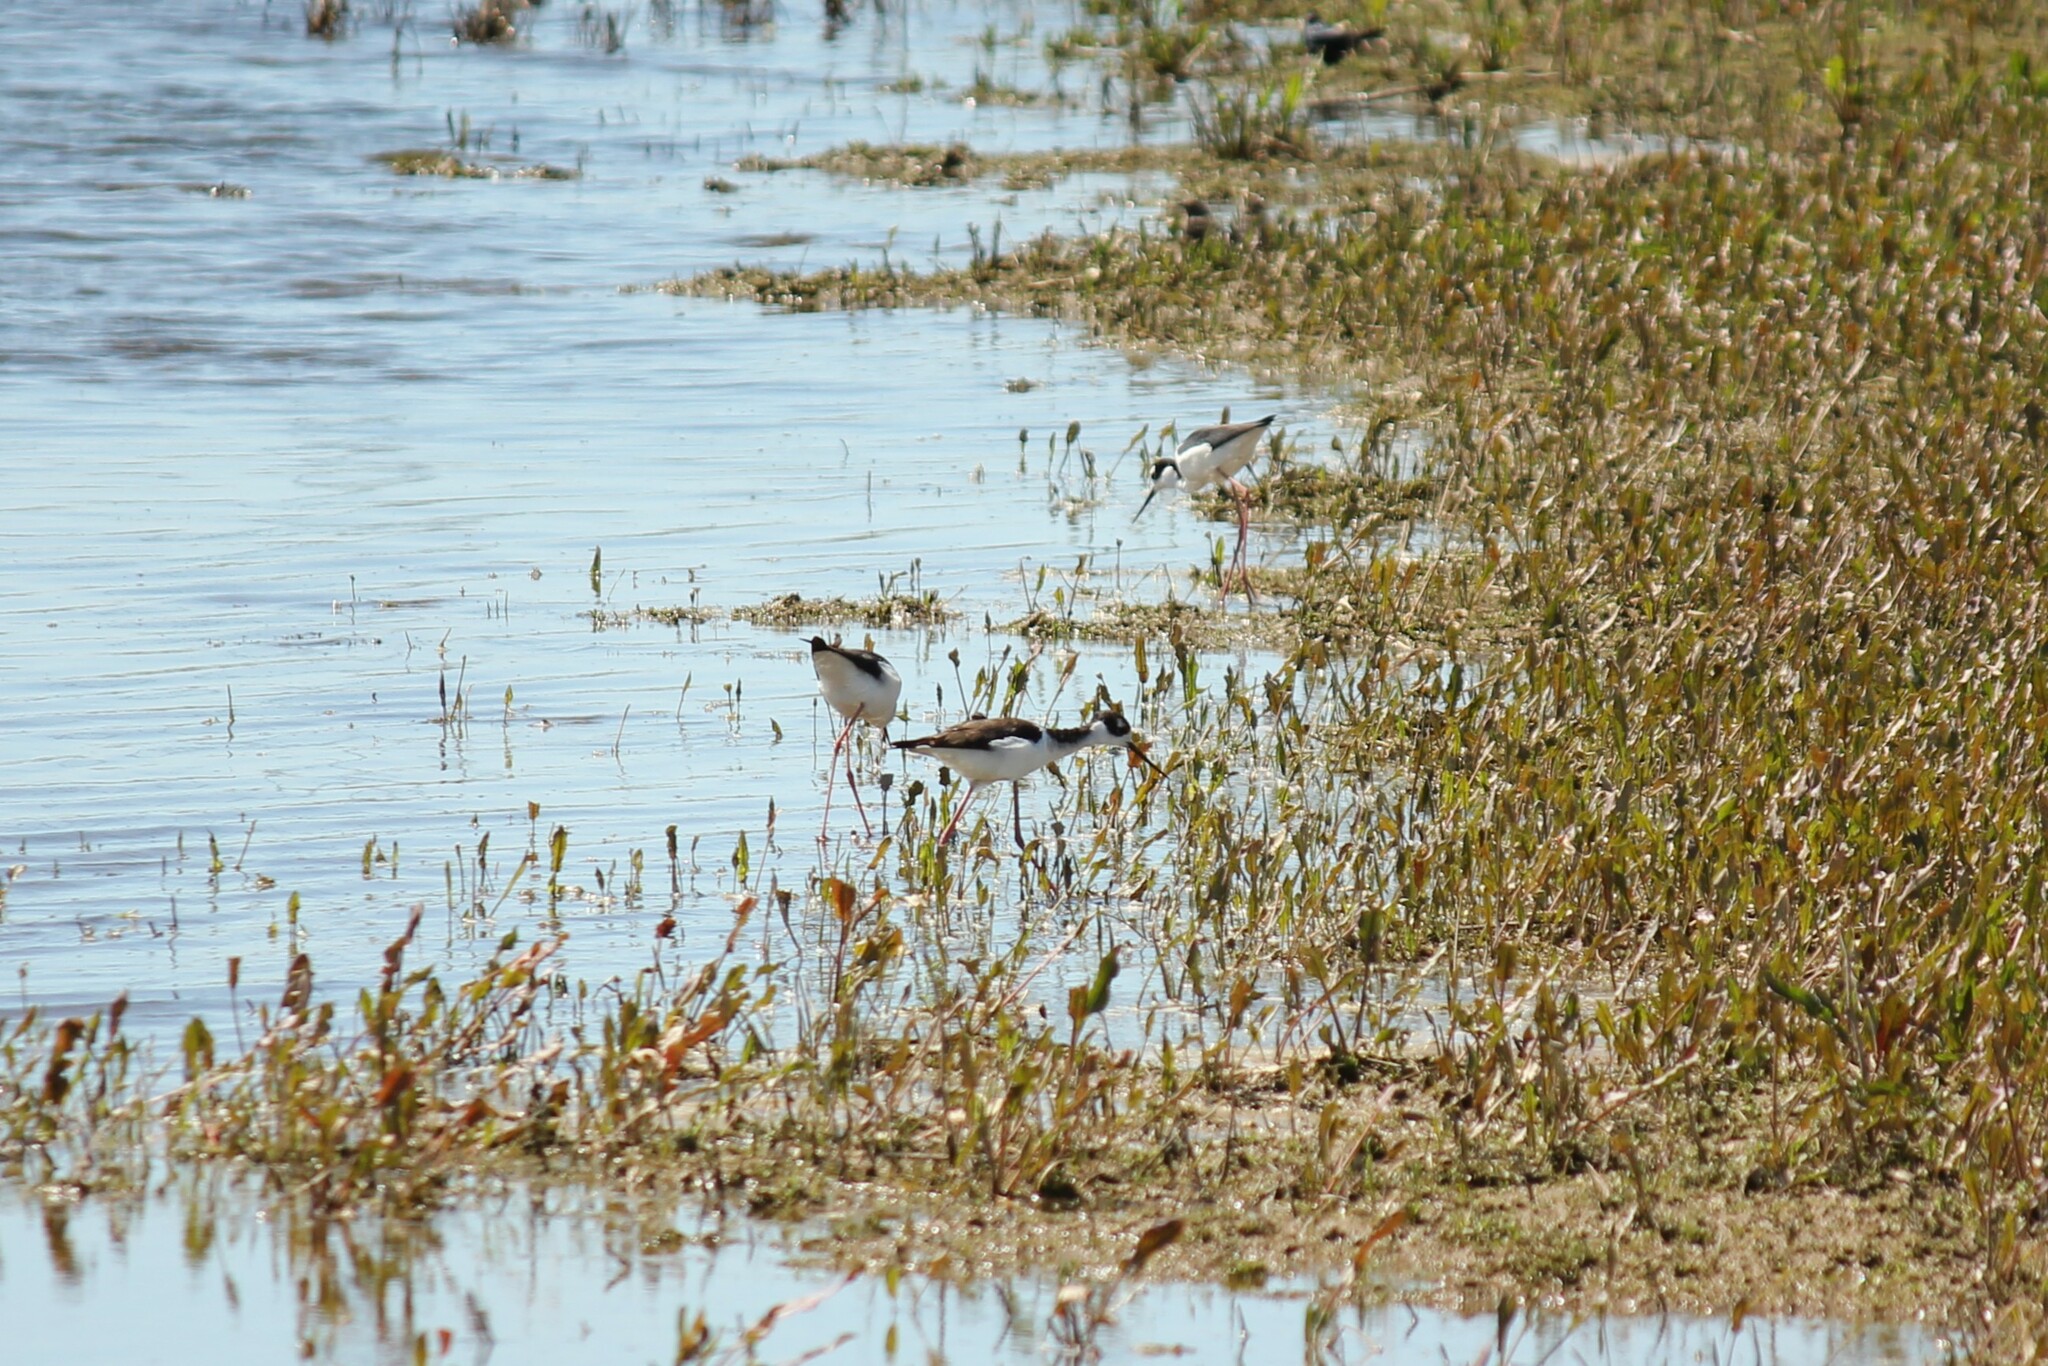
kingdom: Animalia
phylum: Chordata
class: Aves
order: Charadriiformes
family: Recurvirostridae
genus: Himantopus
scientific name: Himantopus mexicanus
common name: Black-necked stilt
